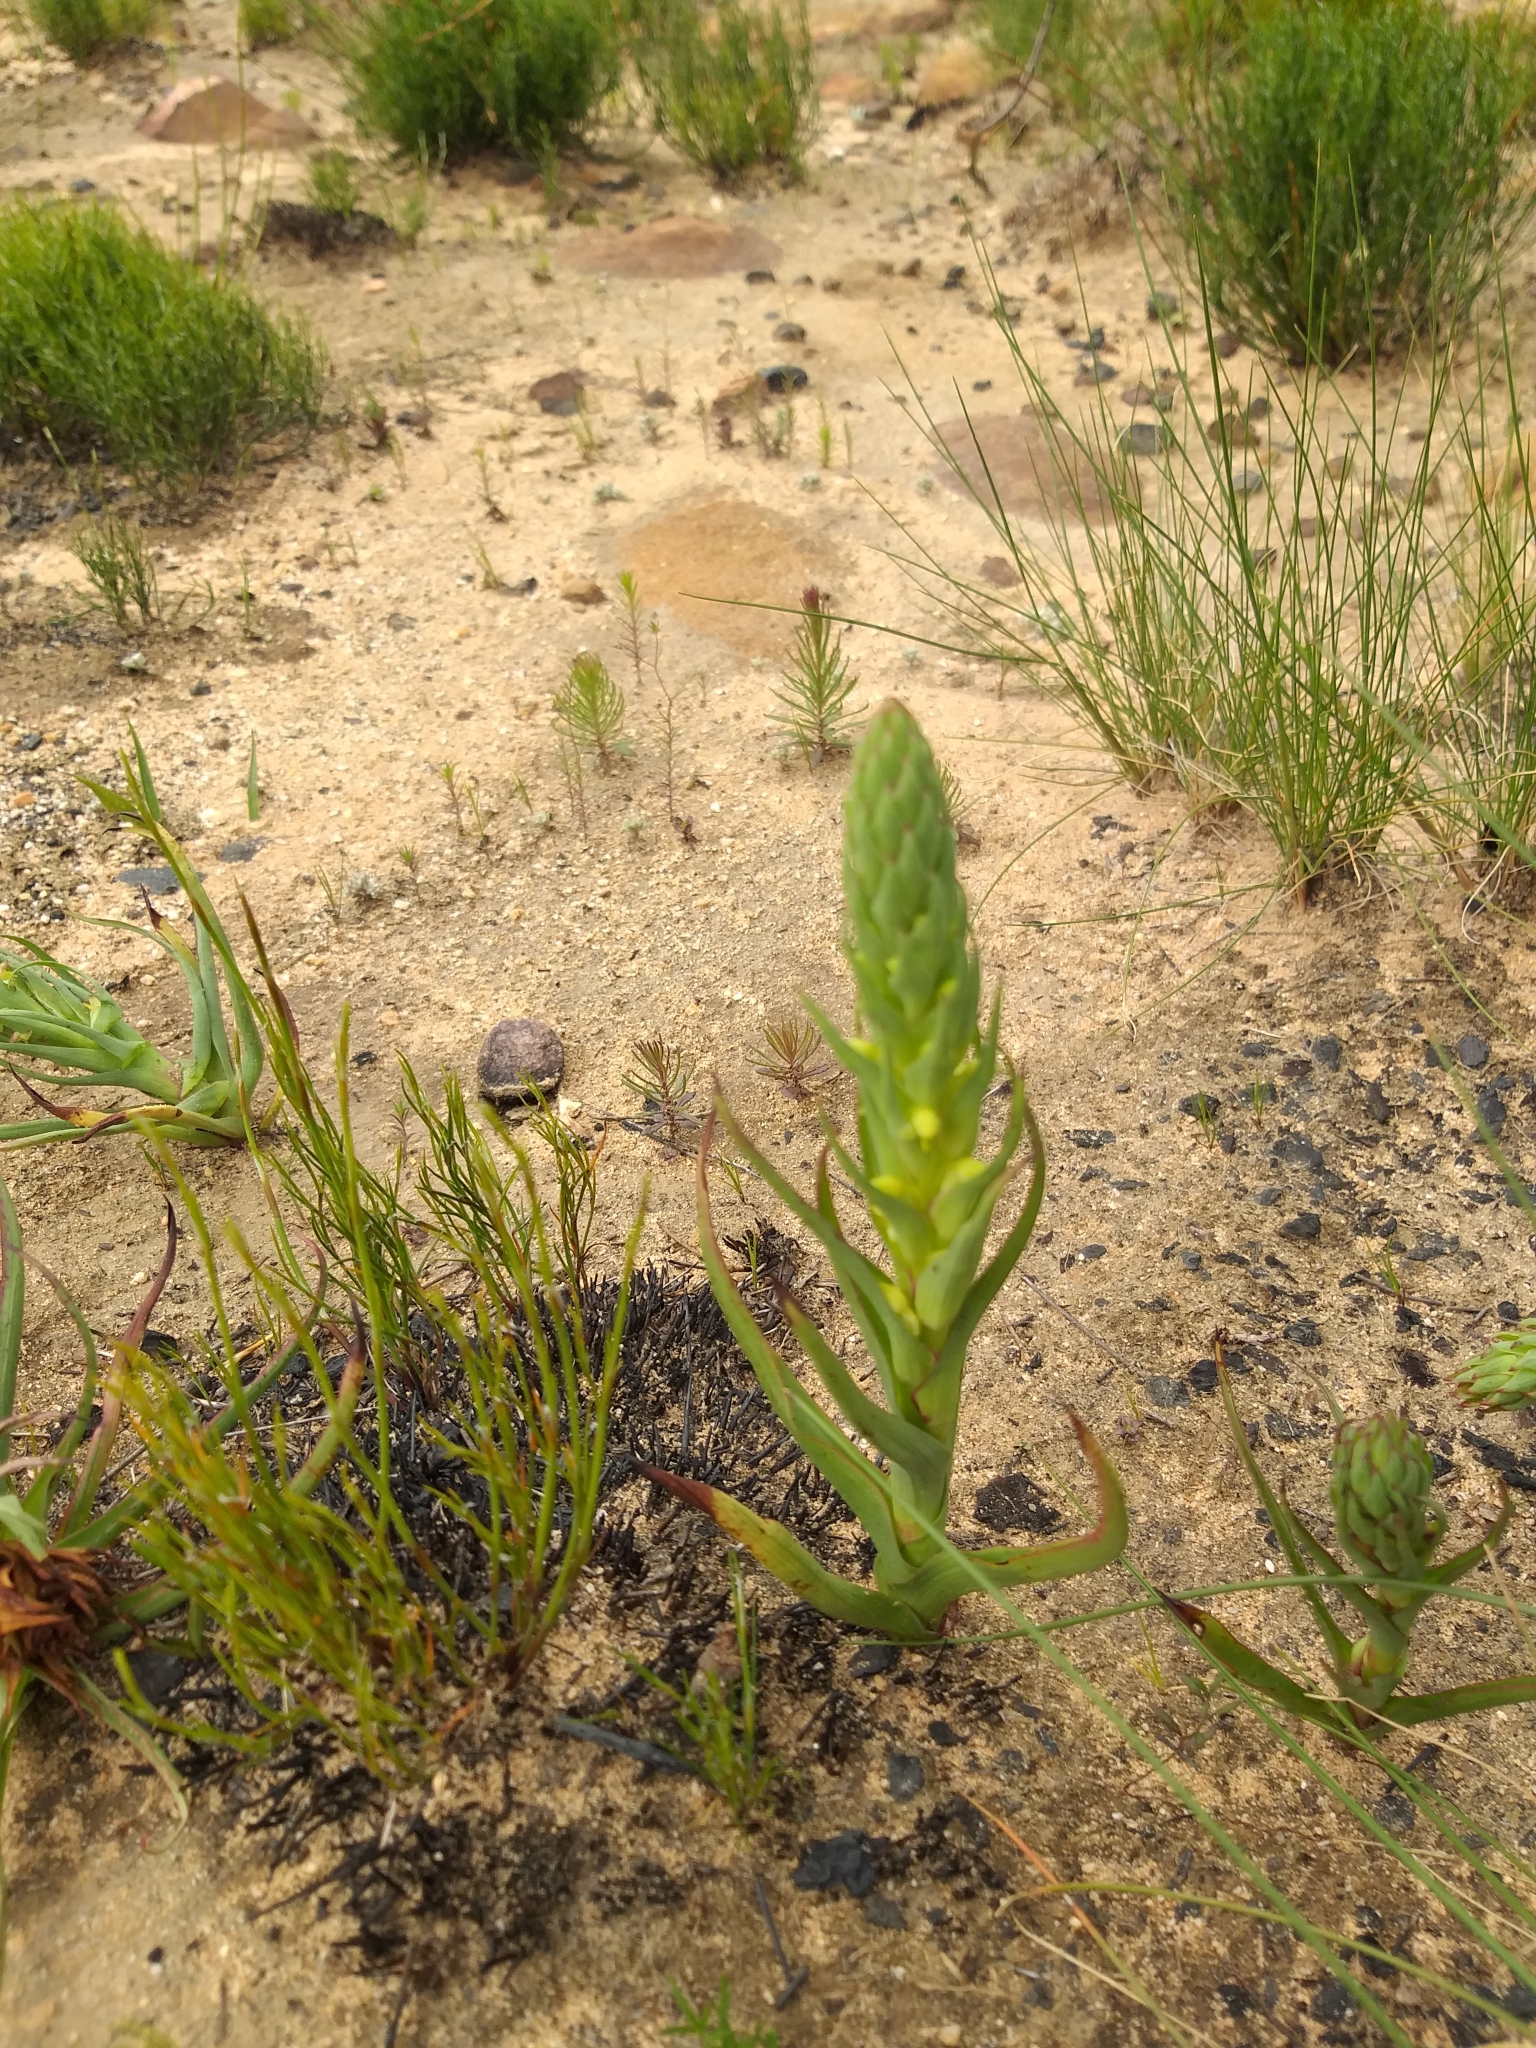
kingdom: Plantae
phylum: Tracheophyta
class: Liliopsida
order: Asparagales
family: Orchidaceae
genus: Disa
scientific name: Disa bracteata
